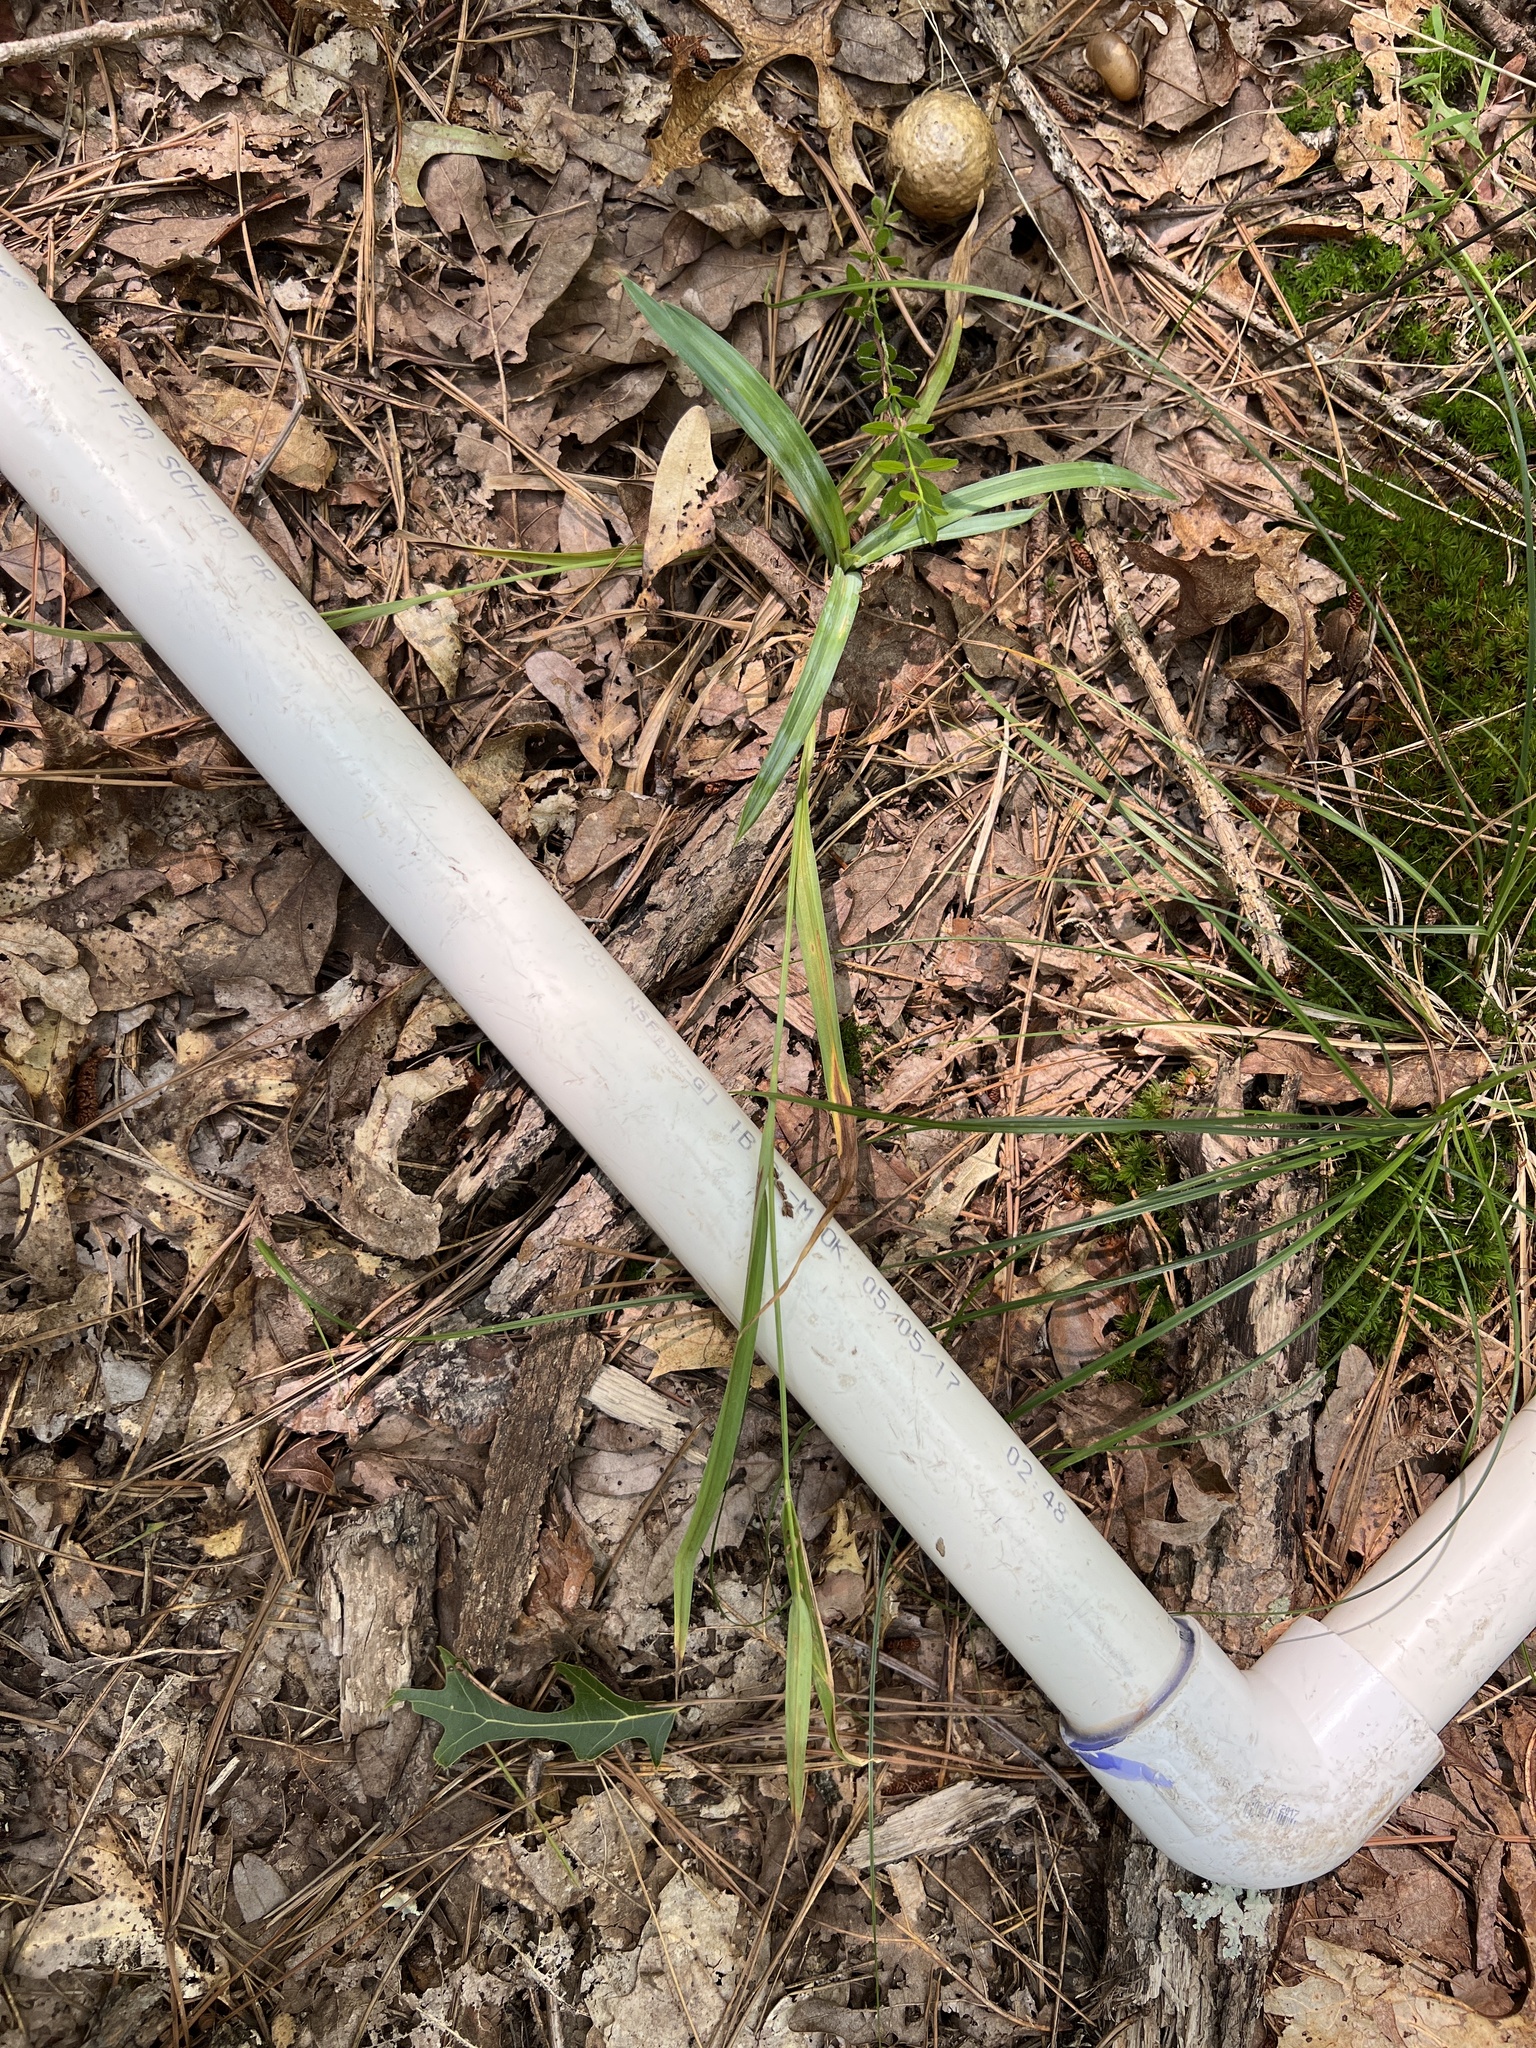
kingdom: Plantae
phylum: Tracheophyta
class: Liliopsida
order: Poales
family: Cyperaceae
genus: Carex
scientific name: Carex glaucodea
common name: Blue sedge
